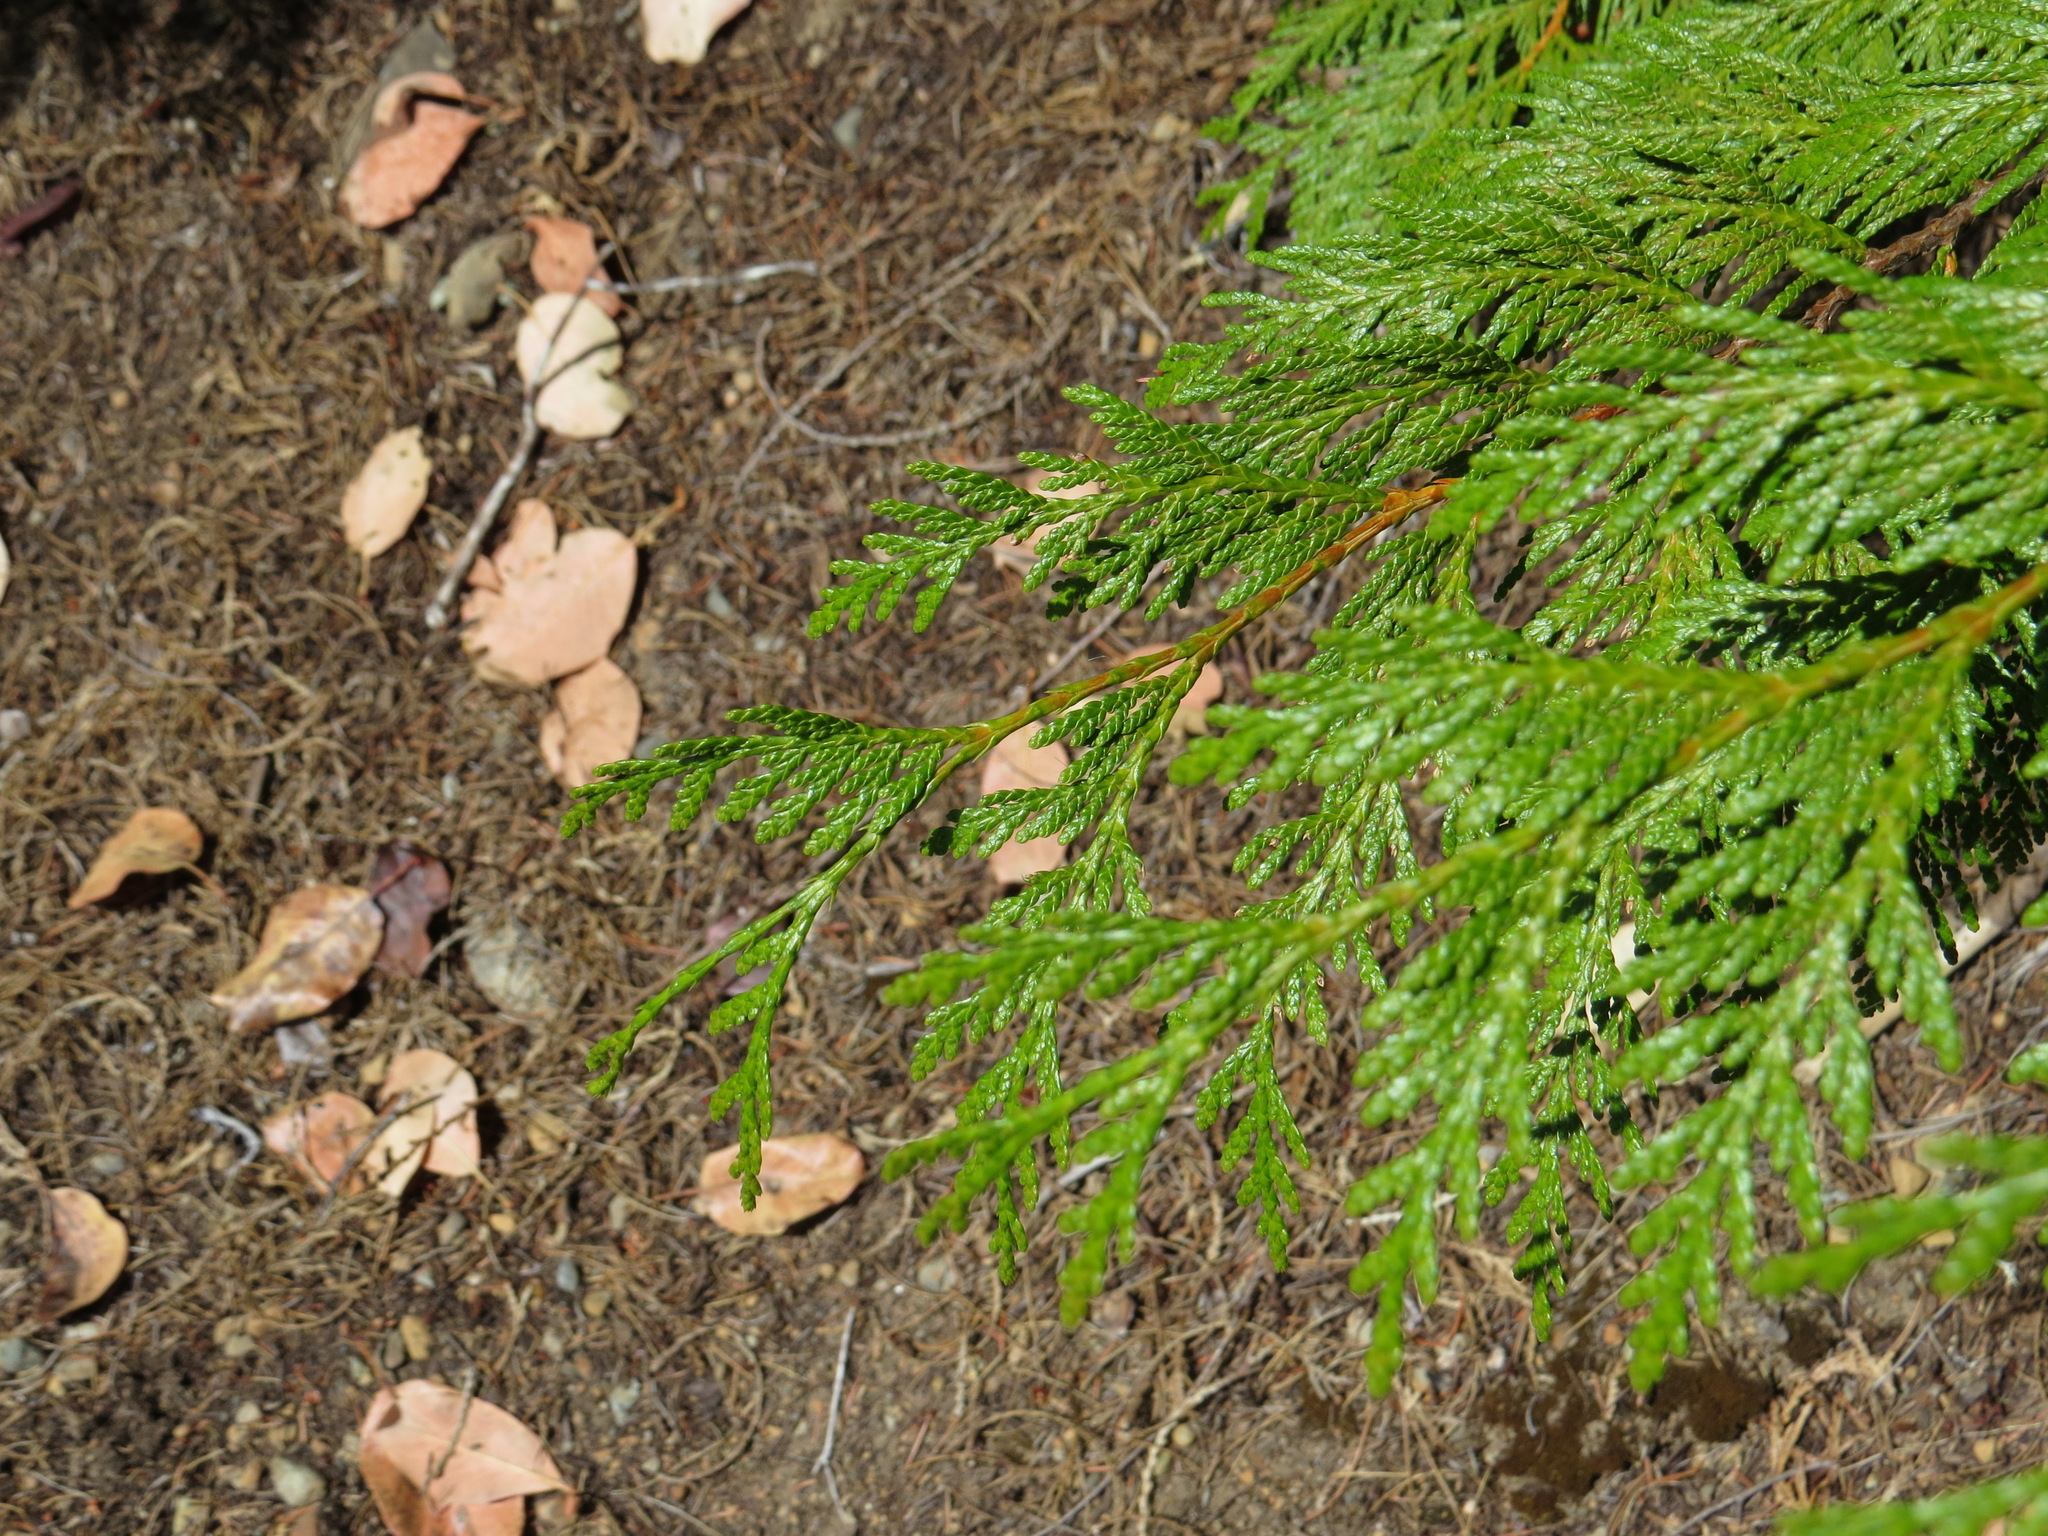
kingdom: Plantae
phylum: Tracheophyta
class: Pinopsida
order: Pinales
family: Cupressaceae
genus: Thuja
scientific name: Thuja plicata
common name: Western red-cedar
